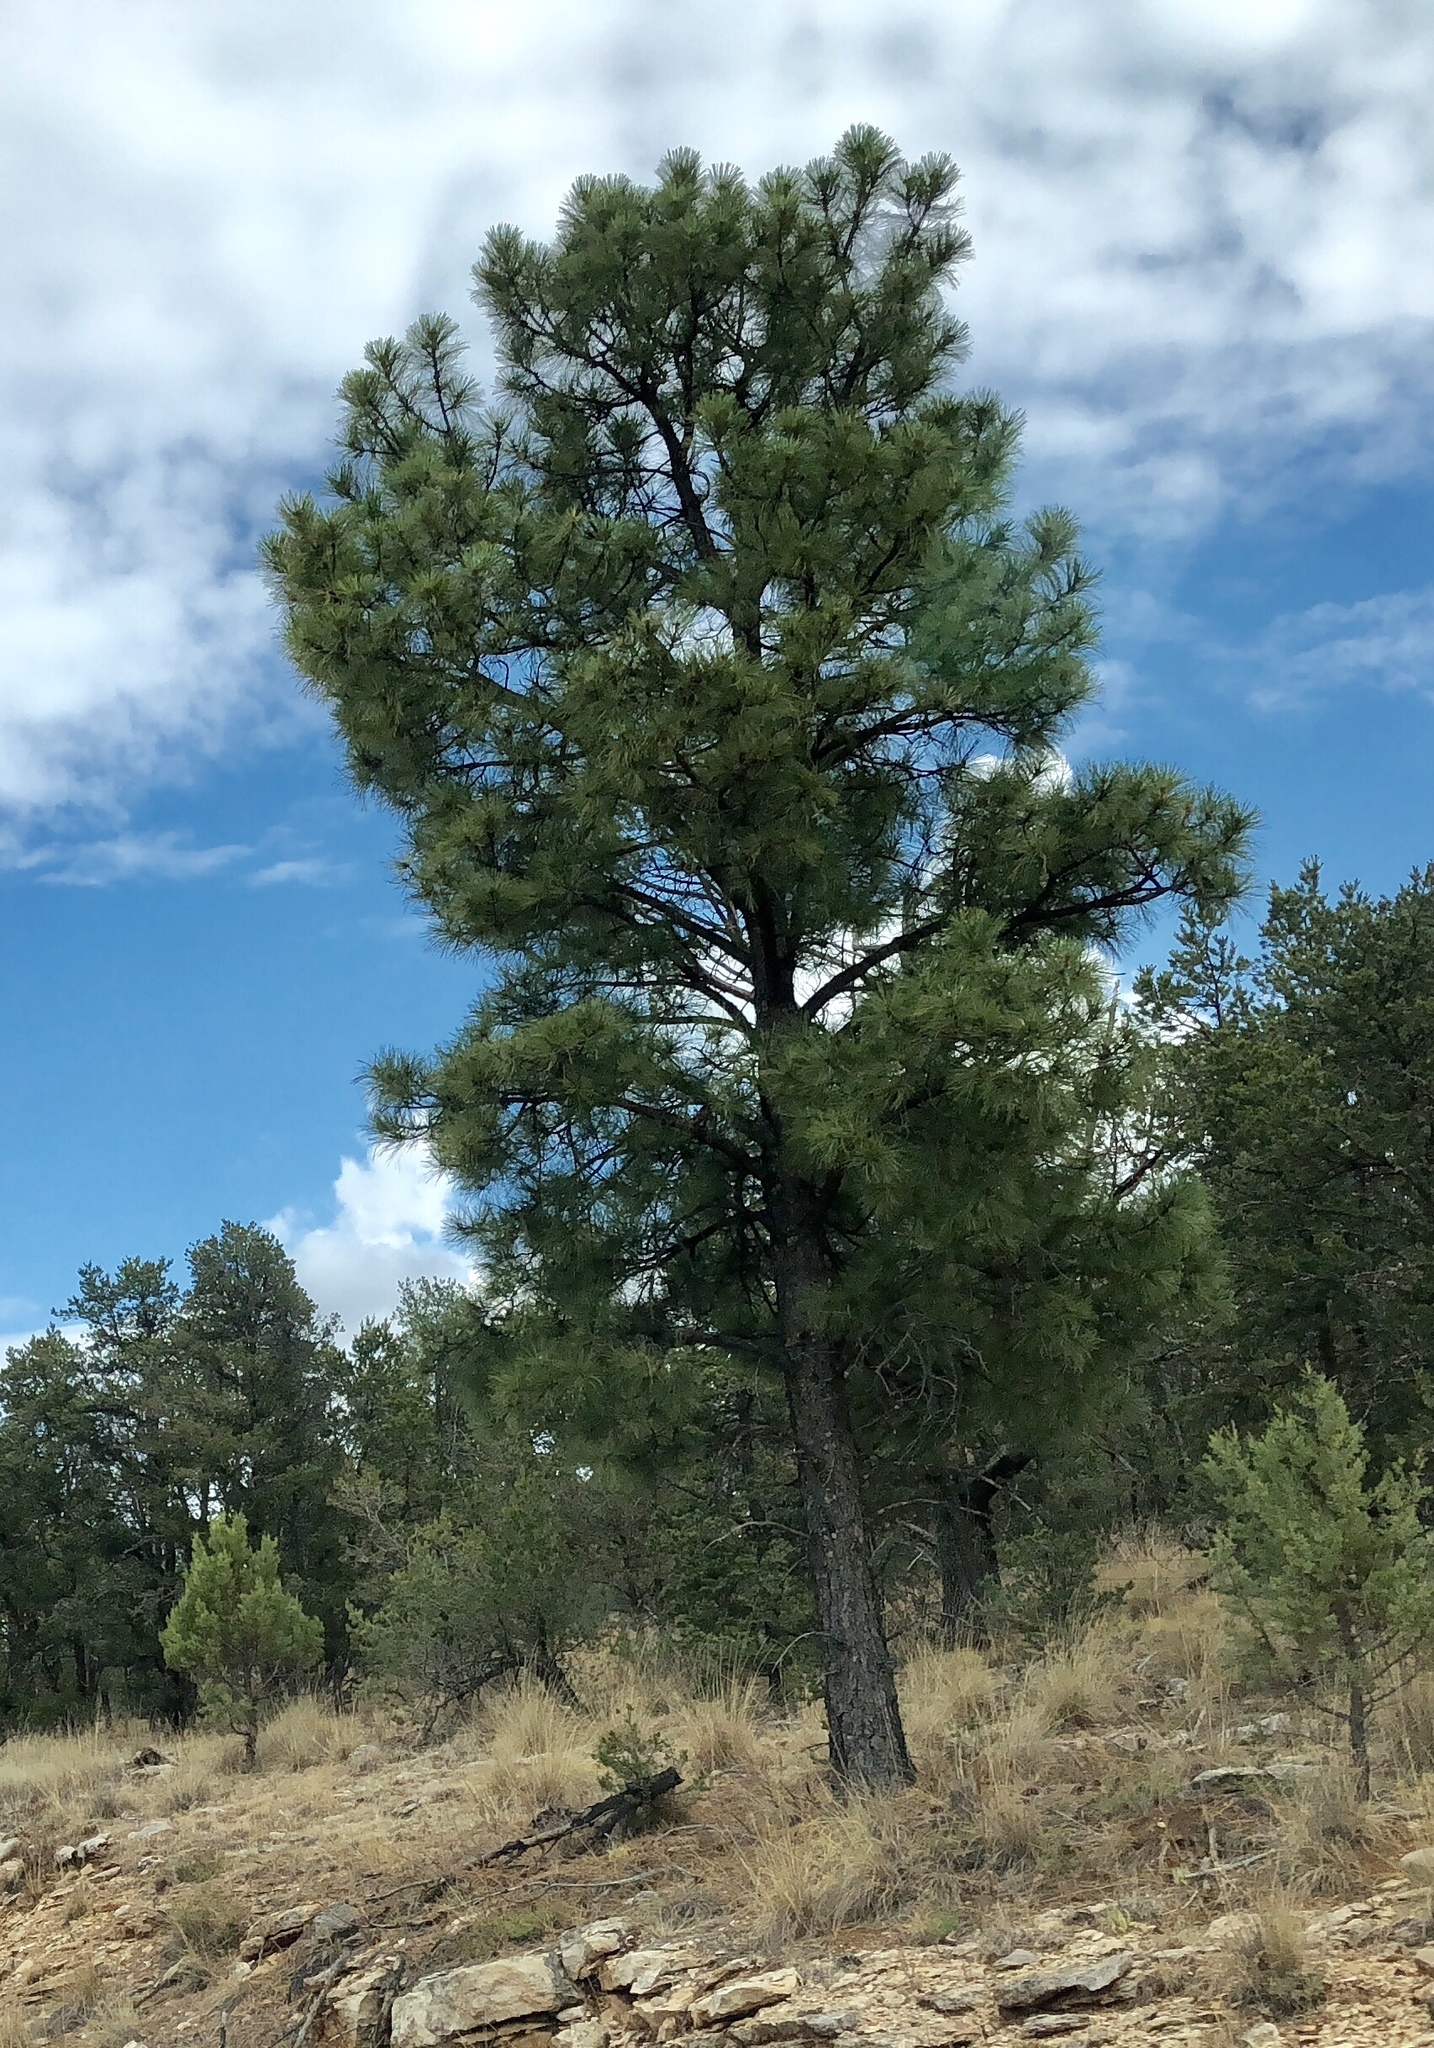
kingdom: Plantae
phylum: Tracheophyta
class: Pinopsida
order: Pinales
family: Pinaceae
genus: Pinus
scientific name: Pinus ponderosa
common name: Western yellow-pine
